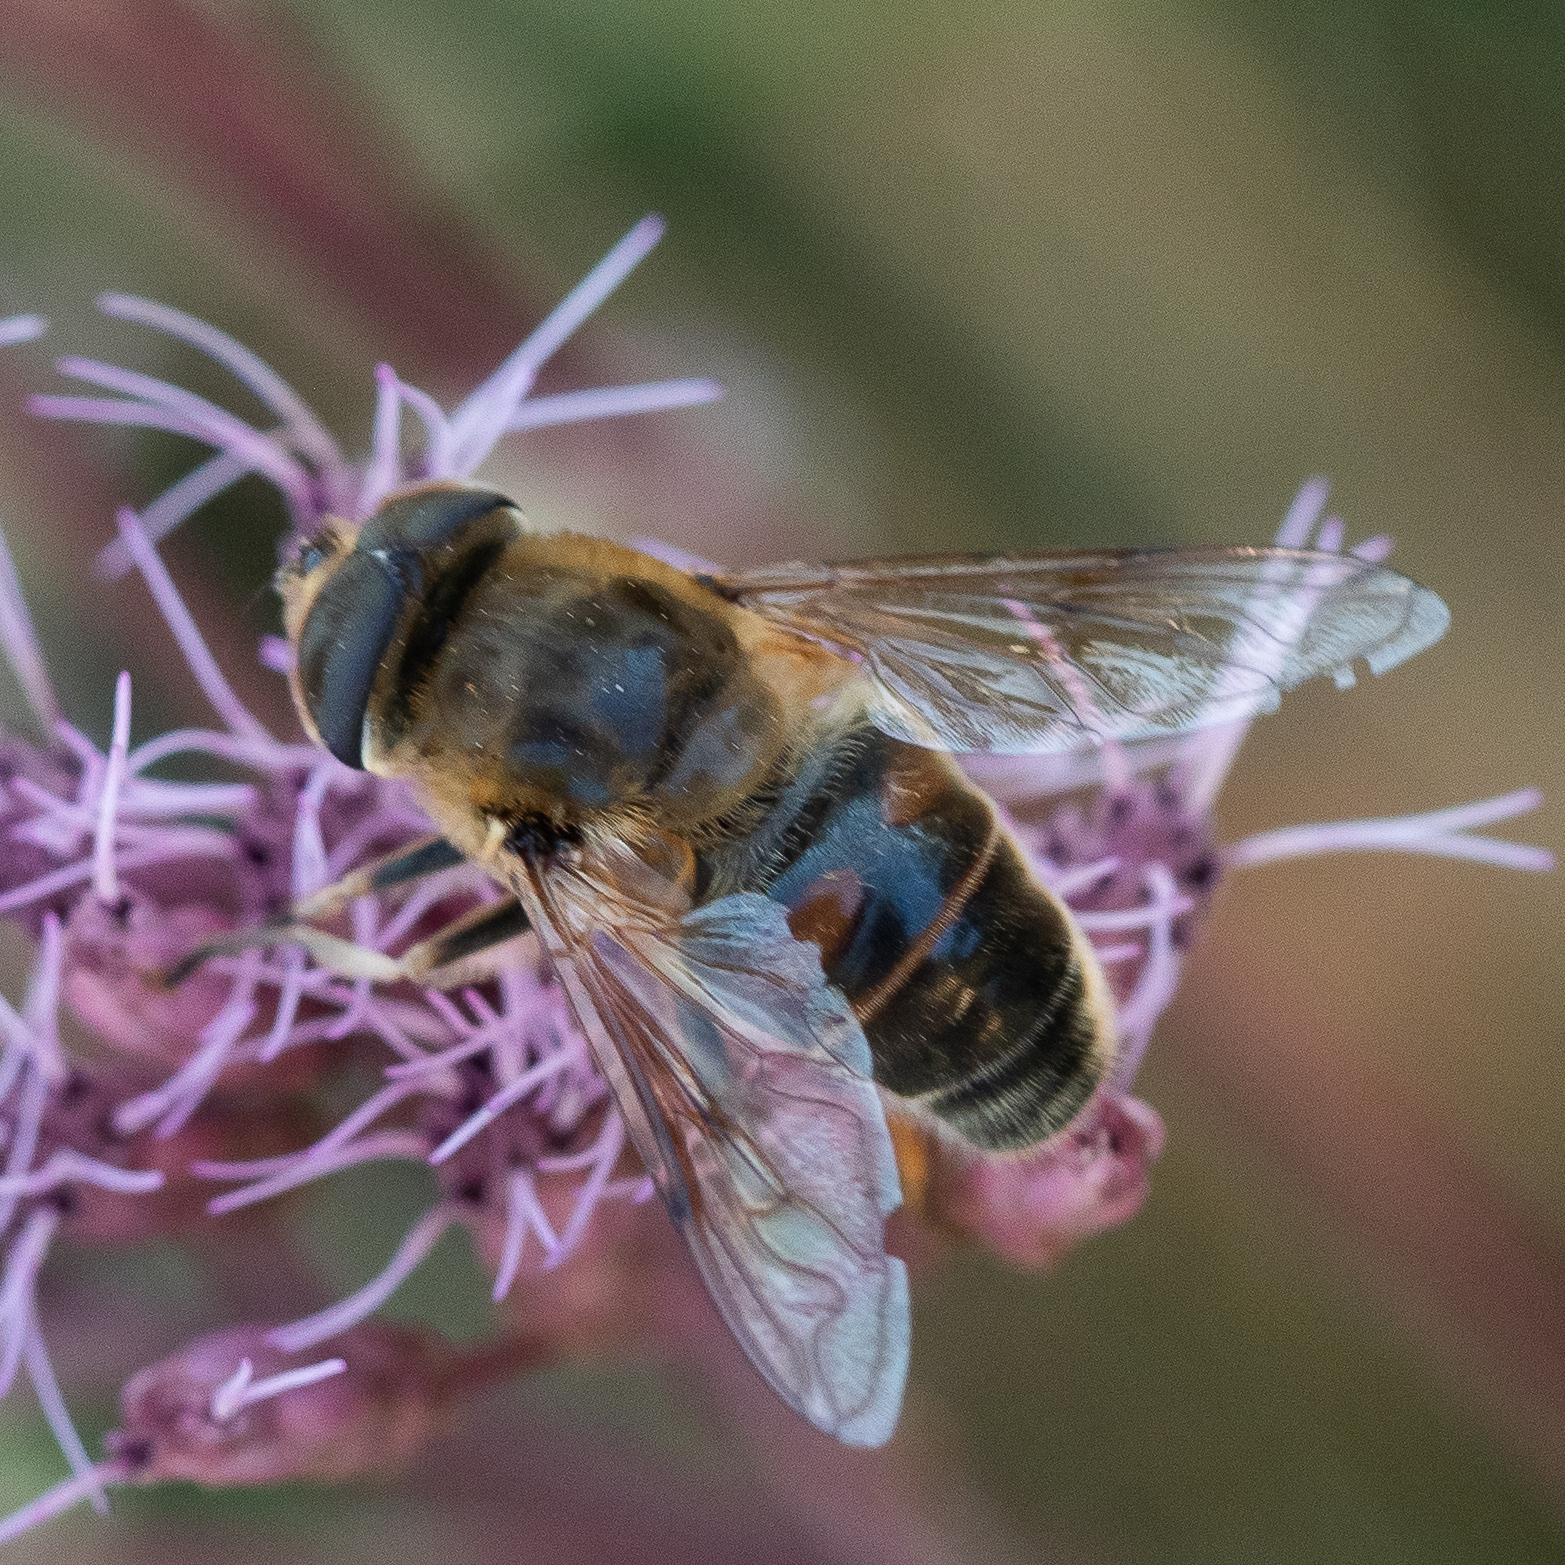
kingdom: Animalia
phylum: Arthropoda
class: Insecta
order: Diptera
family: Syrphidae
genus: Eristalis
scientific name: Eristalis tenax
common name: Drone fly
